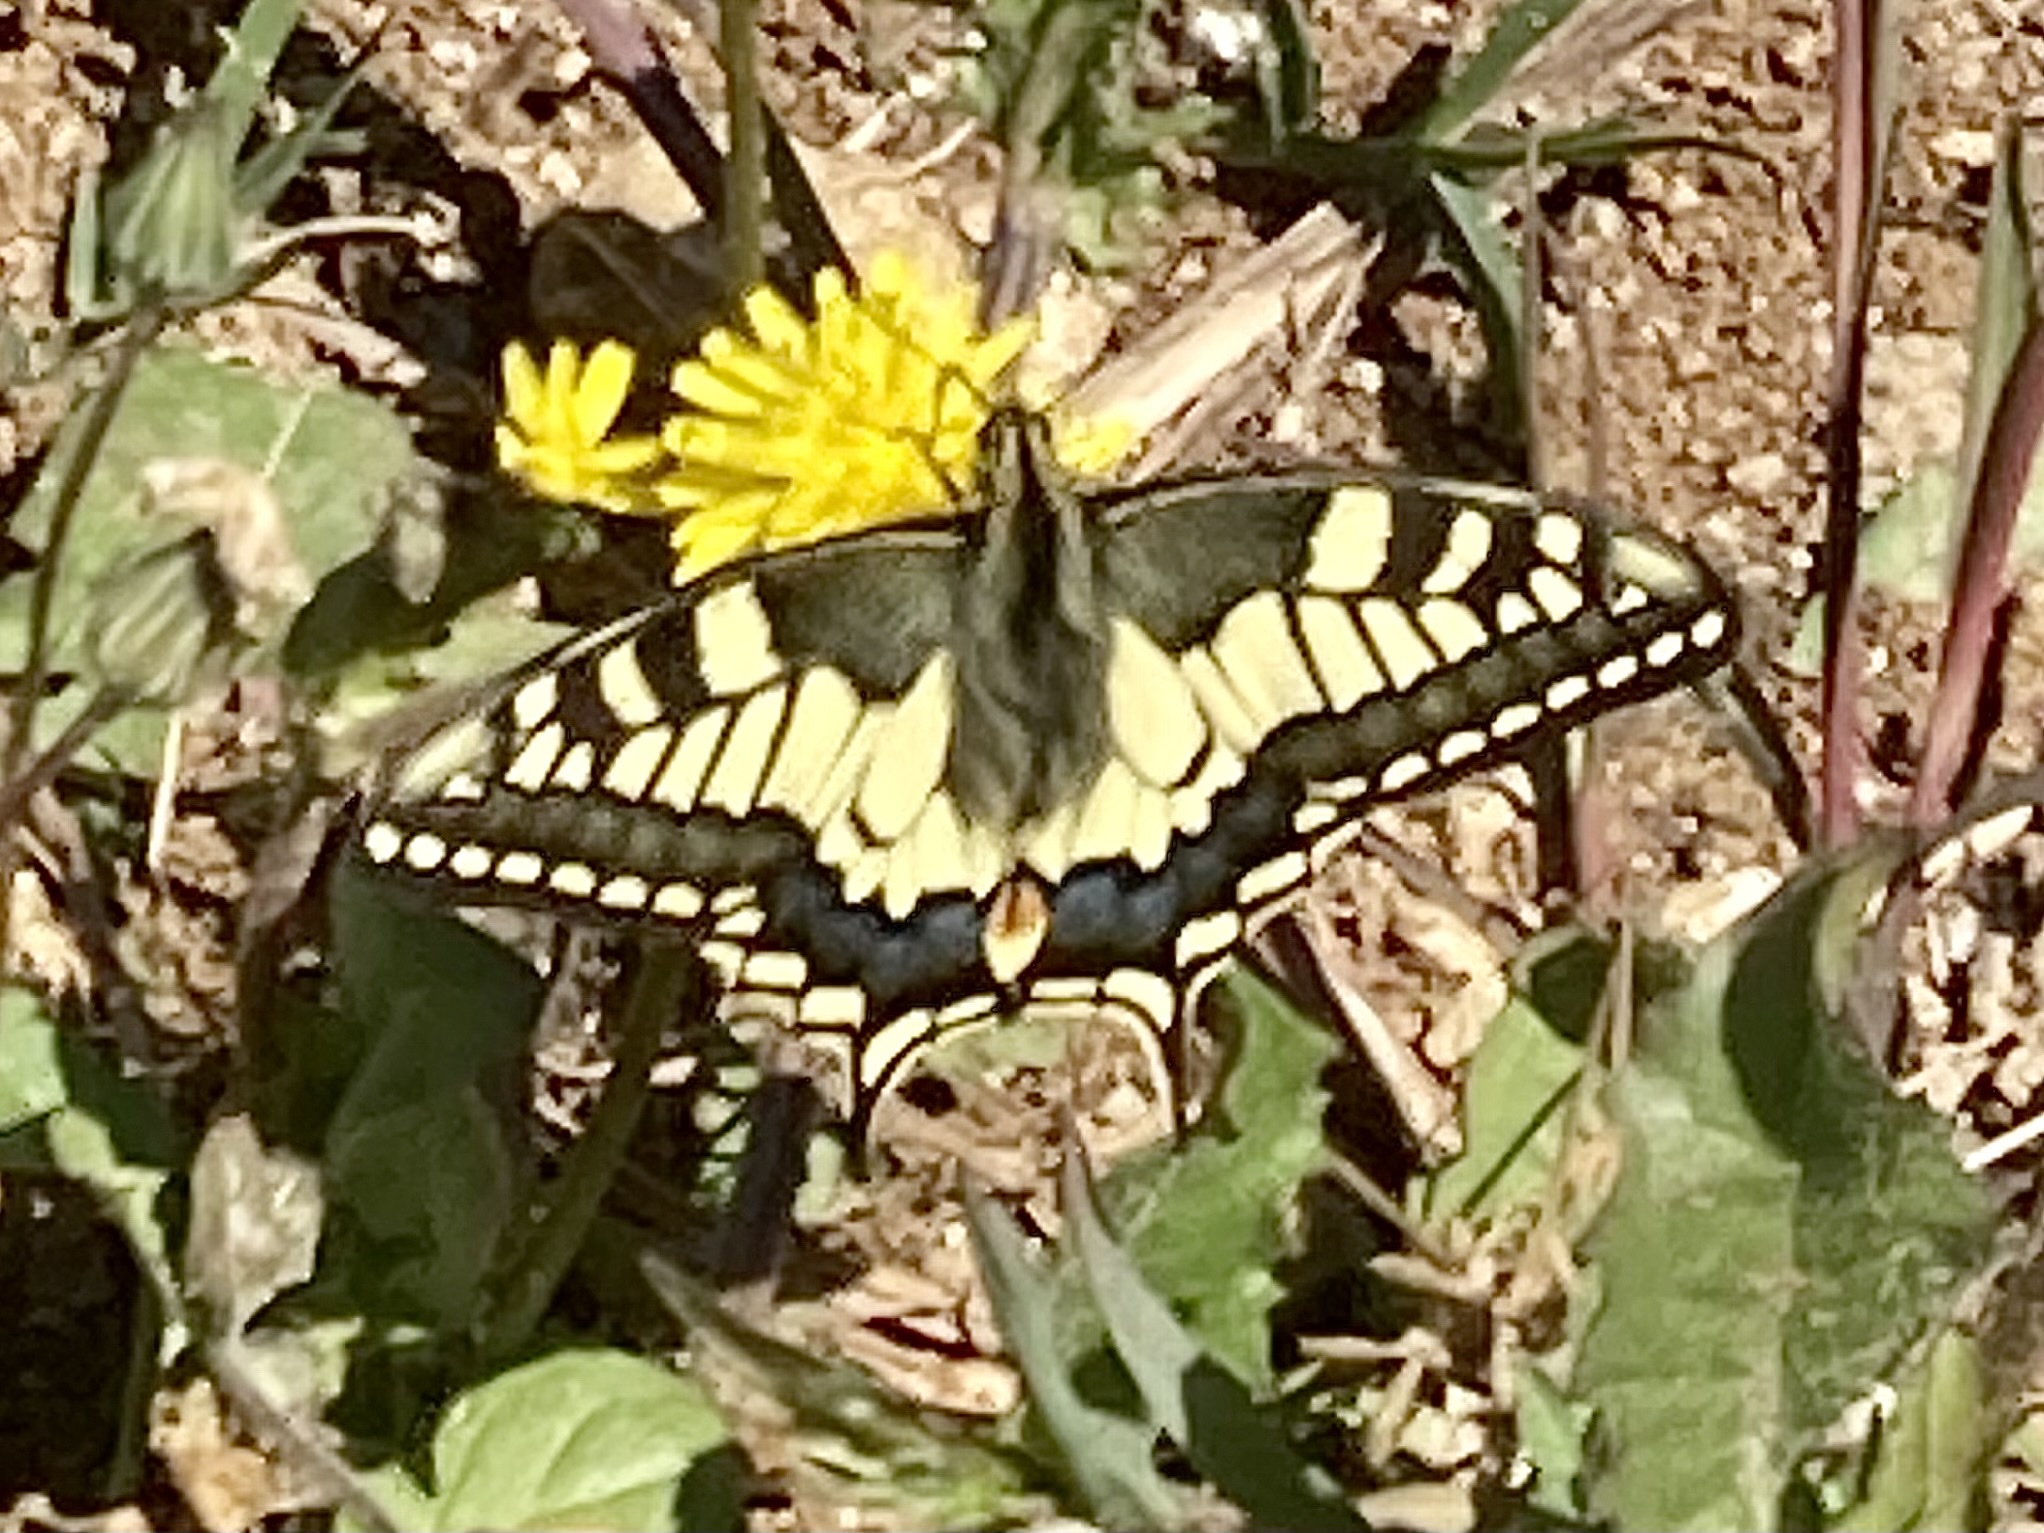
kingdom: Animalia
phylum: Arthropoda
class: Insecta
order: Lepidoptera
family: Papilionidae
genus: Papilio
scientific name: Papilio machaon
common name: Swallowtail
